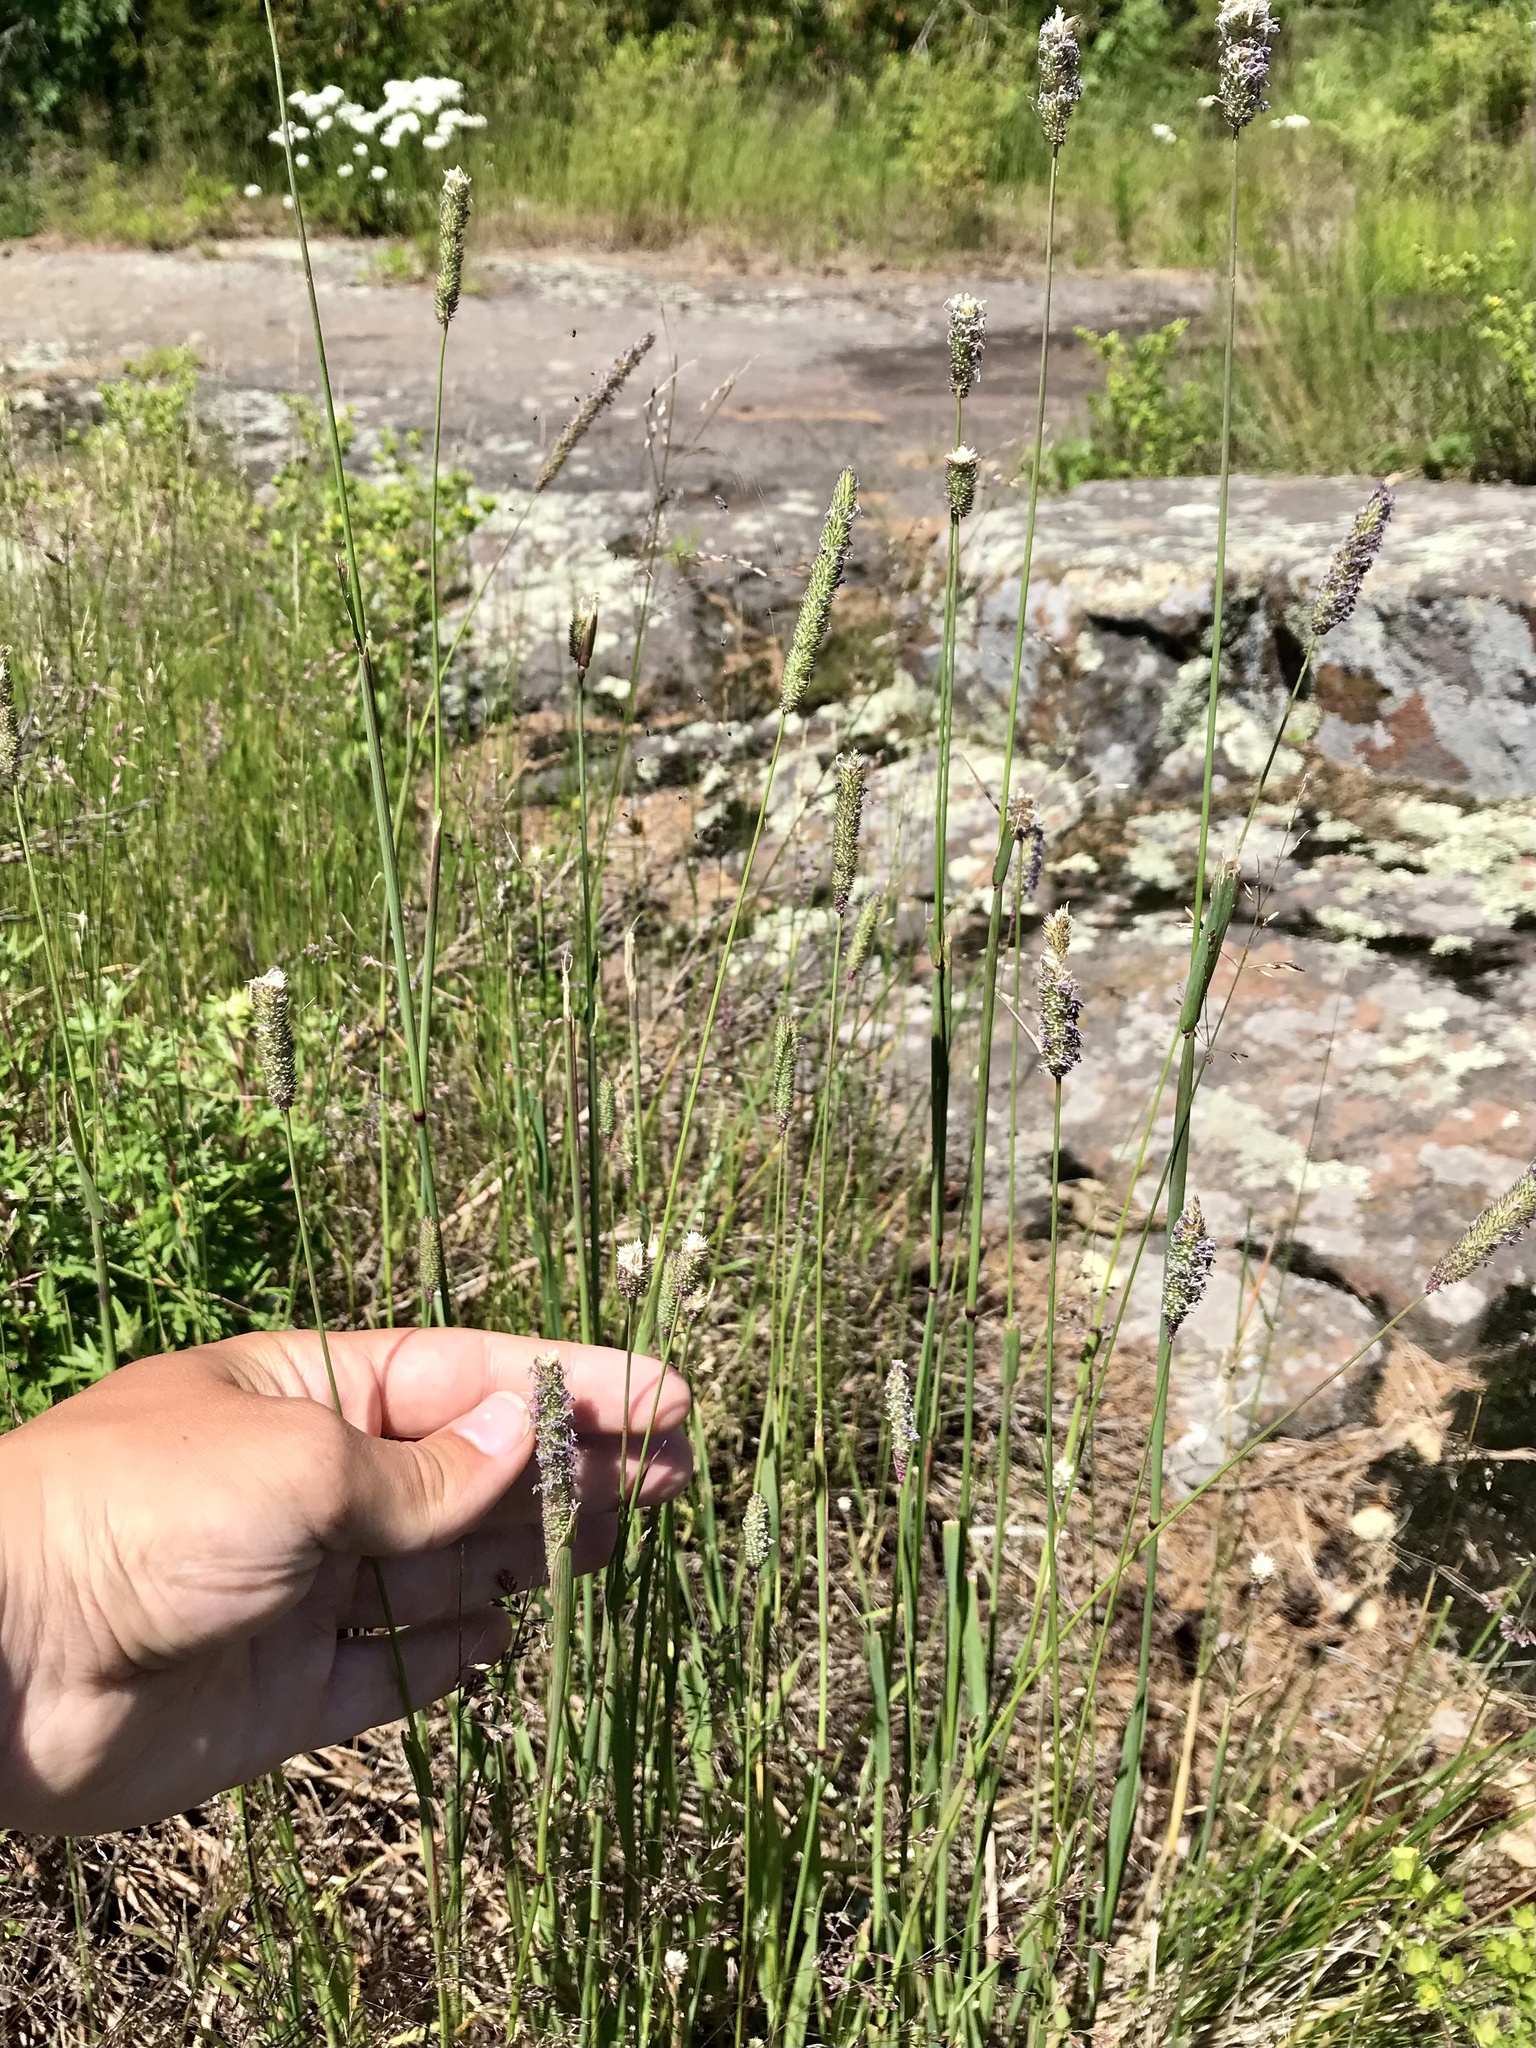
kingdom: Plantae
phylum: Tracheophyta
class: Liliopsida
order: Poales
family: Poaceae
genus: Phleum
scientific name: Phleum pratense
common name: Timothy grass
